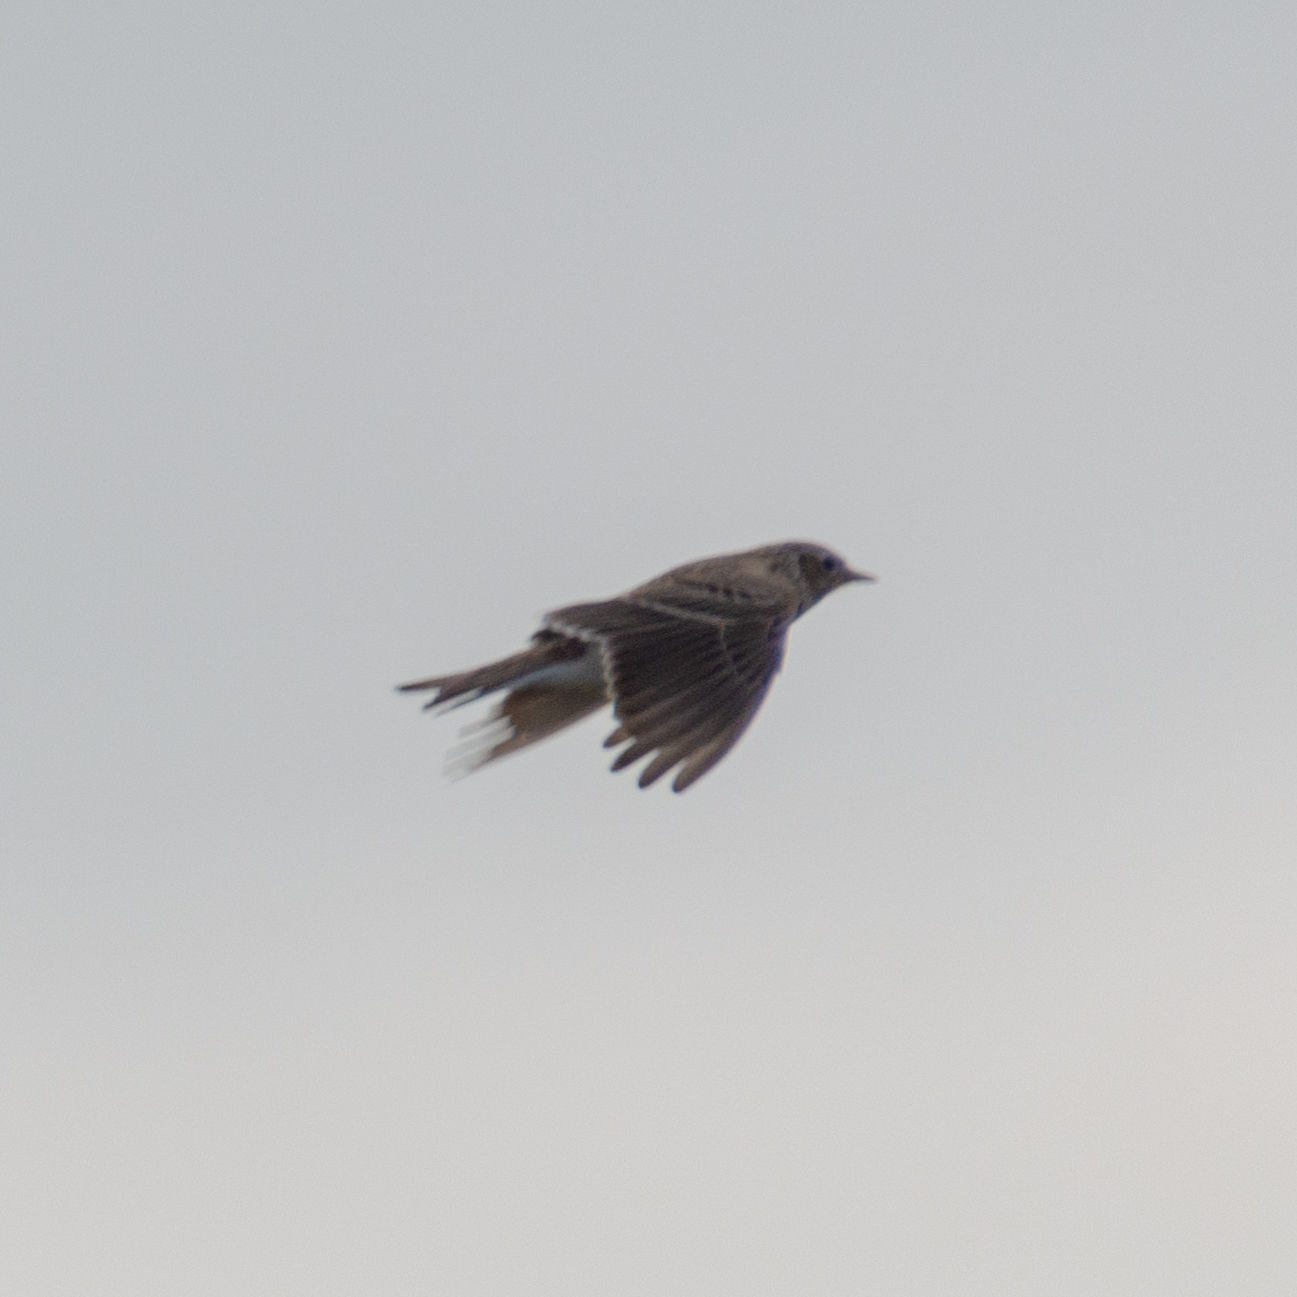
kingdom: Animalia
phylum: Chordata
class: Aves
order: Passeriformes
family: Alaudidae
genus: Alauda
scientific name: Alauda arvensis
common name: Eurasian skylark
